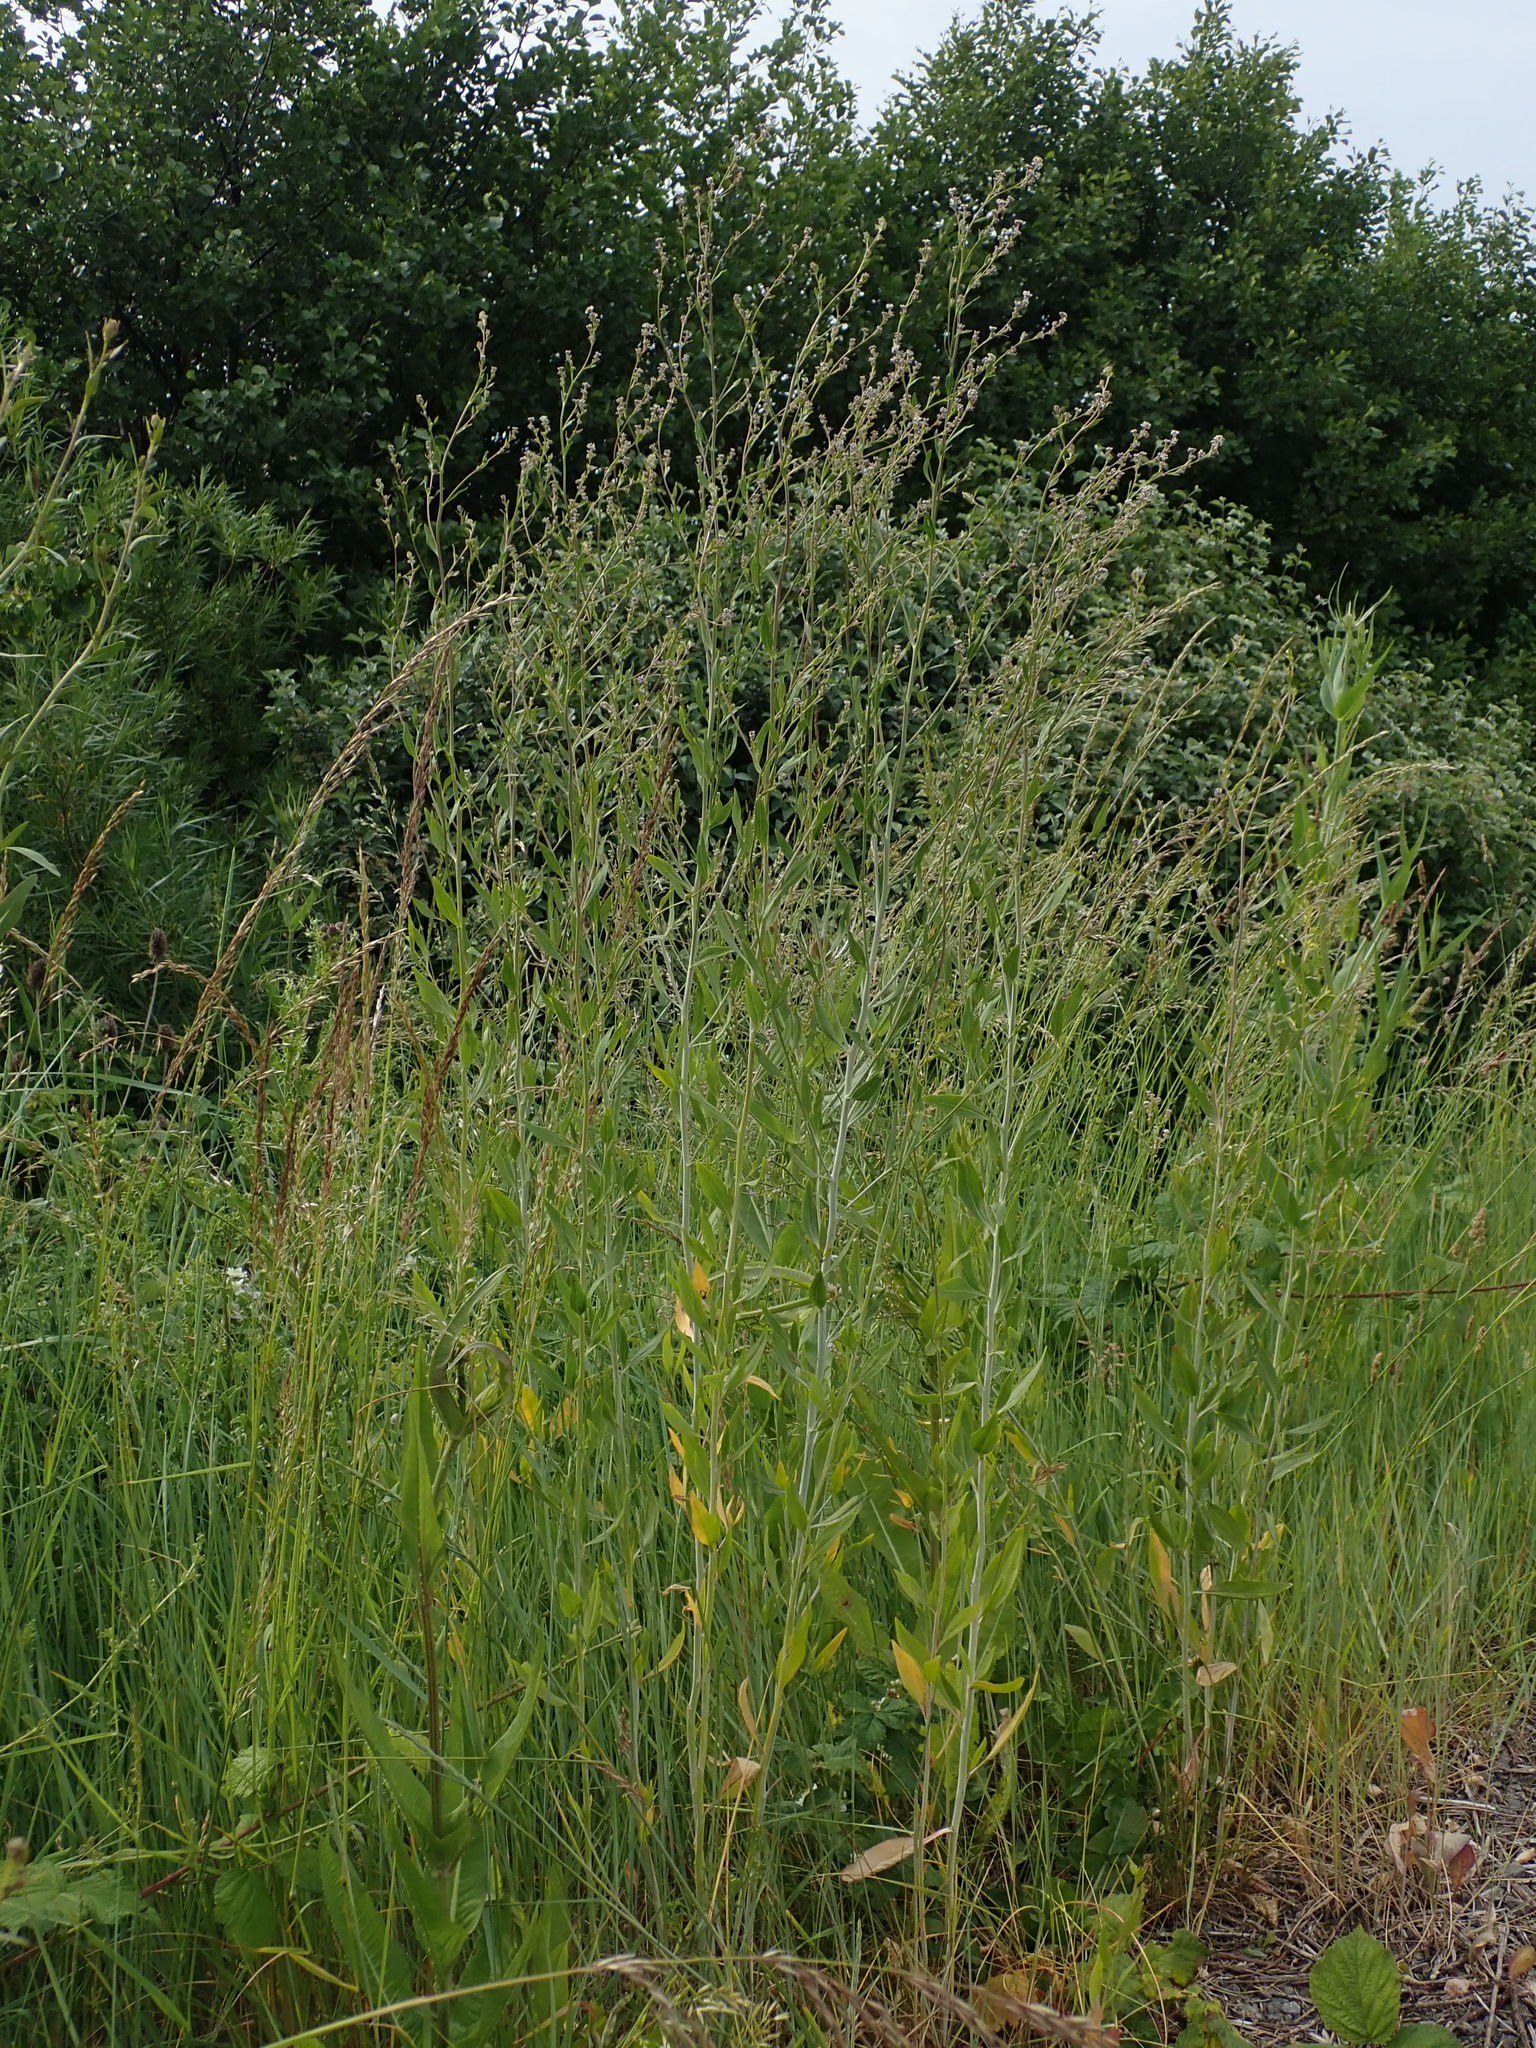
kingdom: Plantae
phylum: Tracheophyta
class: Magnoliopsida
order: Brassicales
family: Brassicaceae
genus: Lepidium
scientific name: Lepidium latifolium
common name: Dittander
